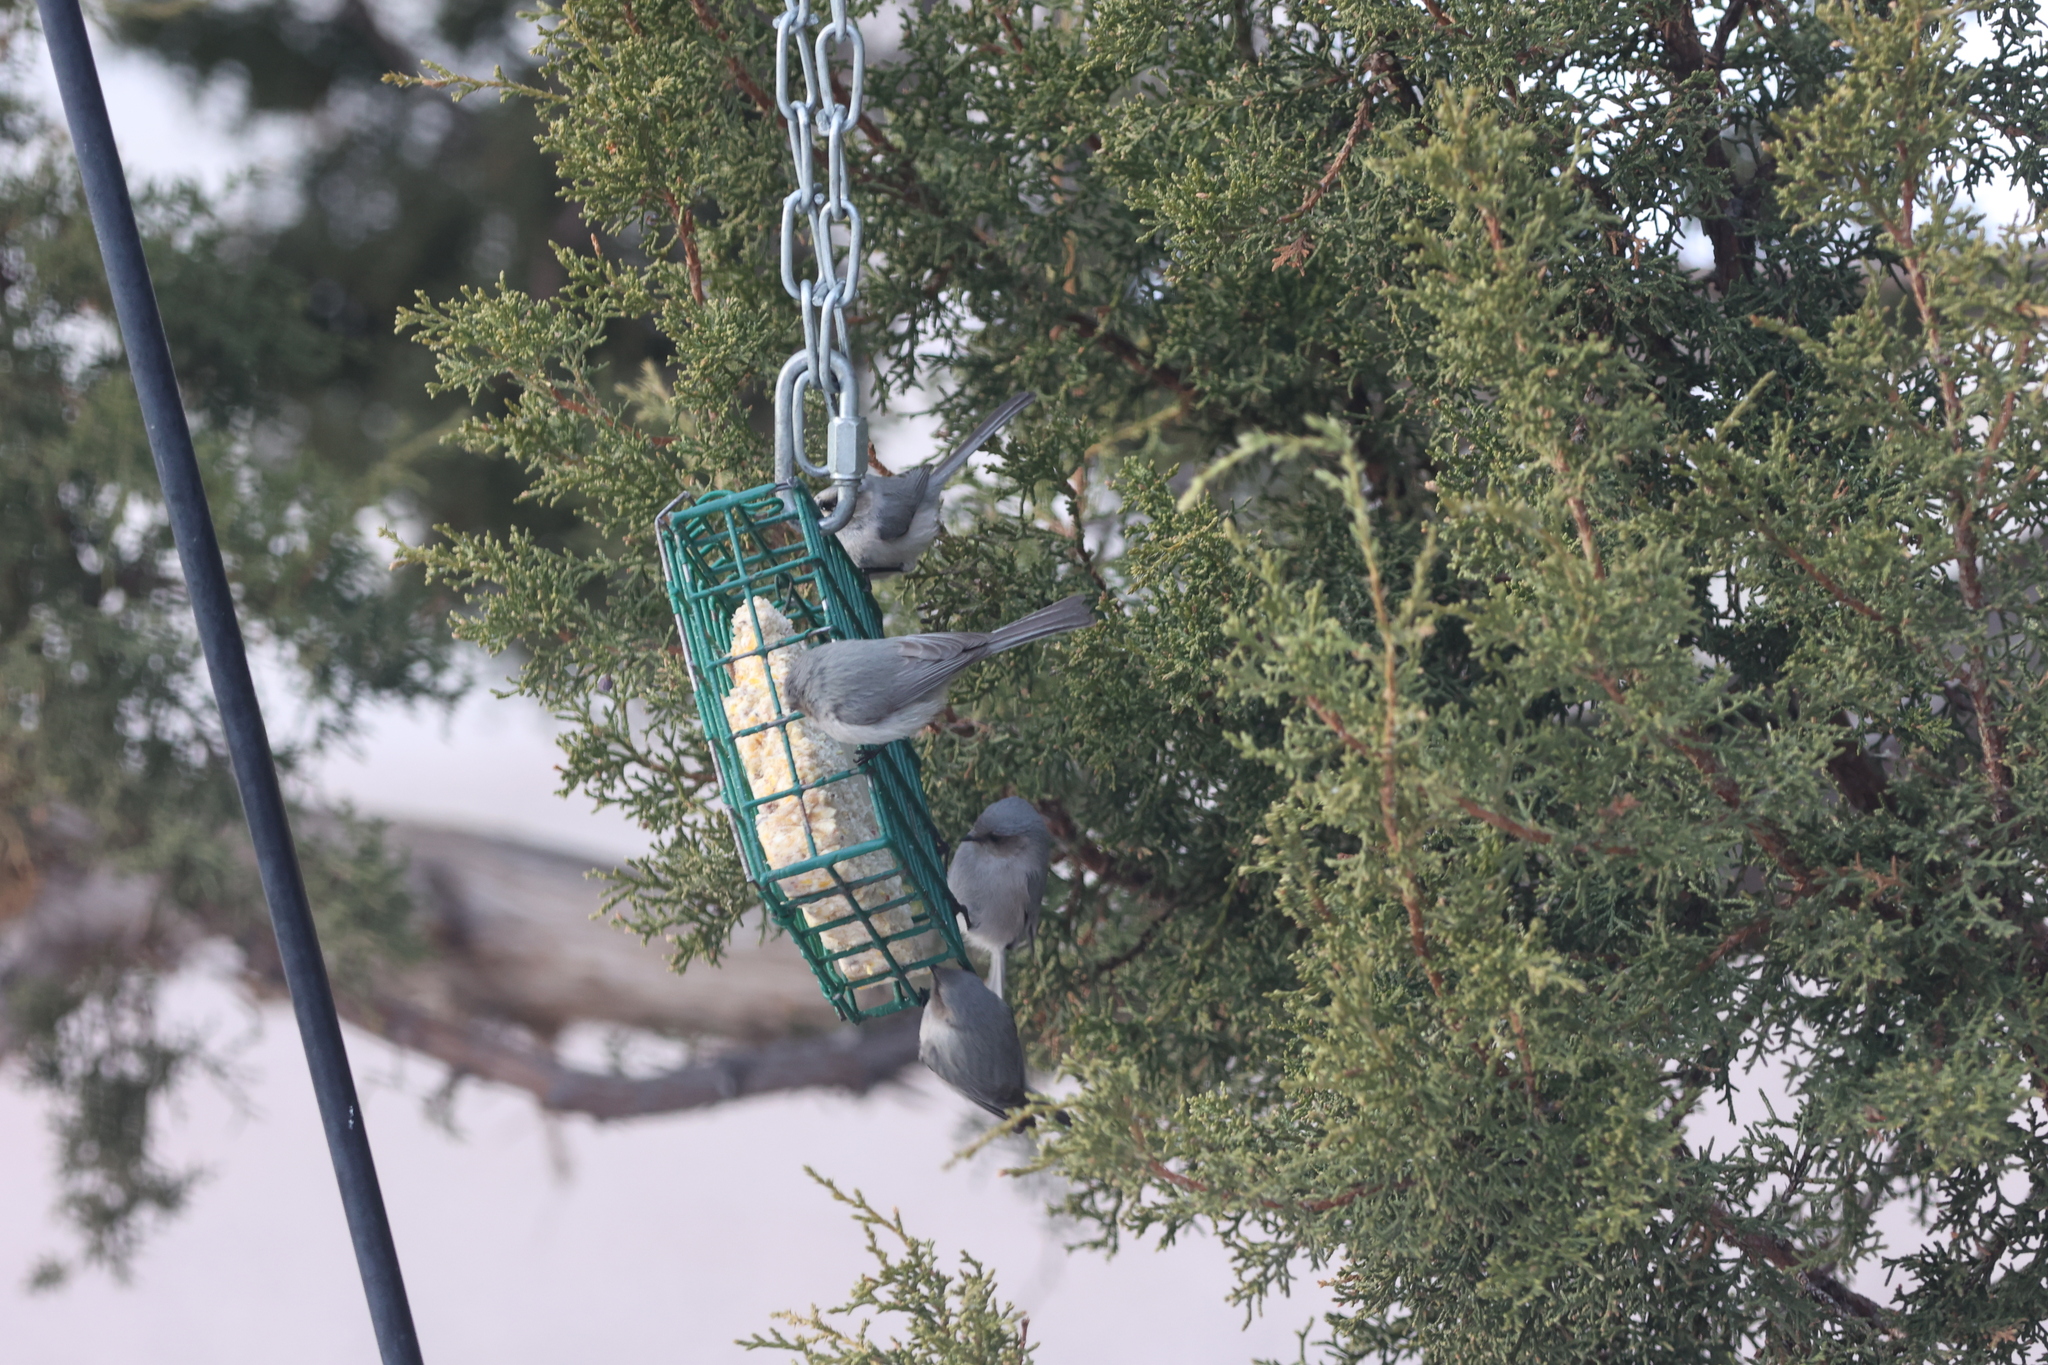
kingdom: Animalia
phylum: Chordata
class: Aves
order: Passeriformes
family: Aegithalidae
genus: Psaltriparus
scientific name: Psaltriparus minimus
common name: American bushtit
